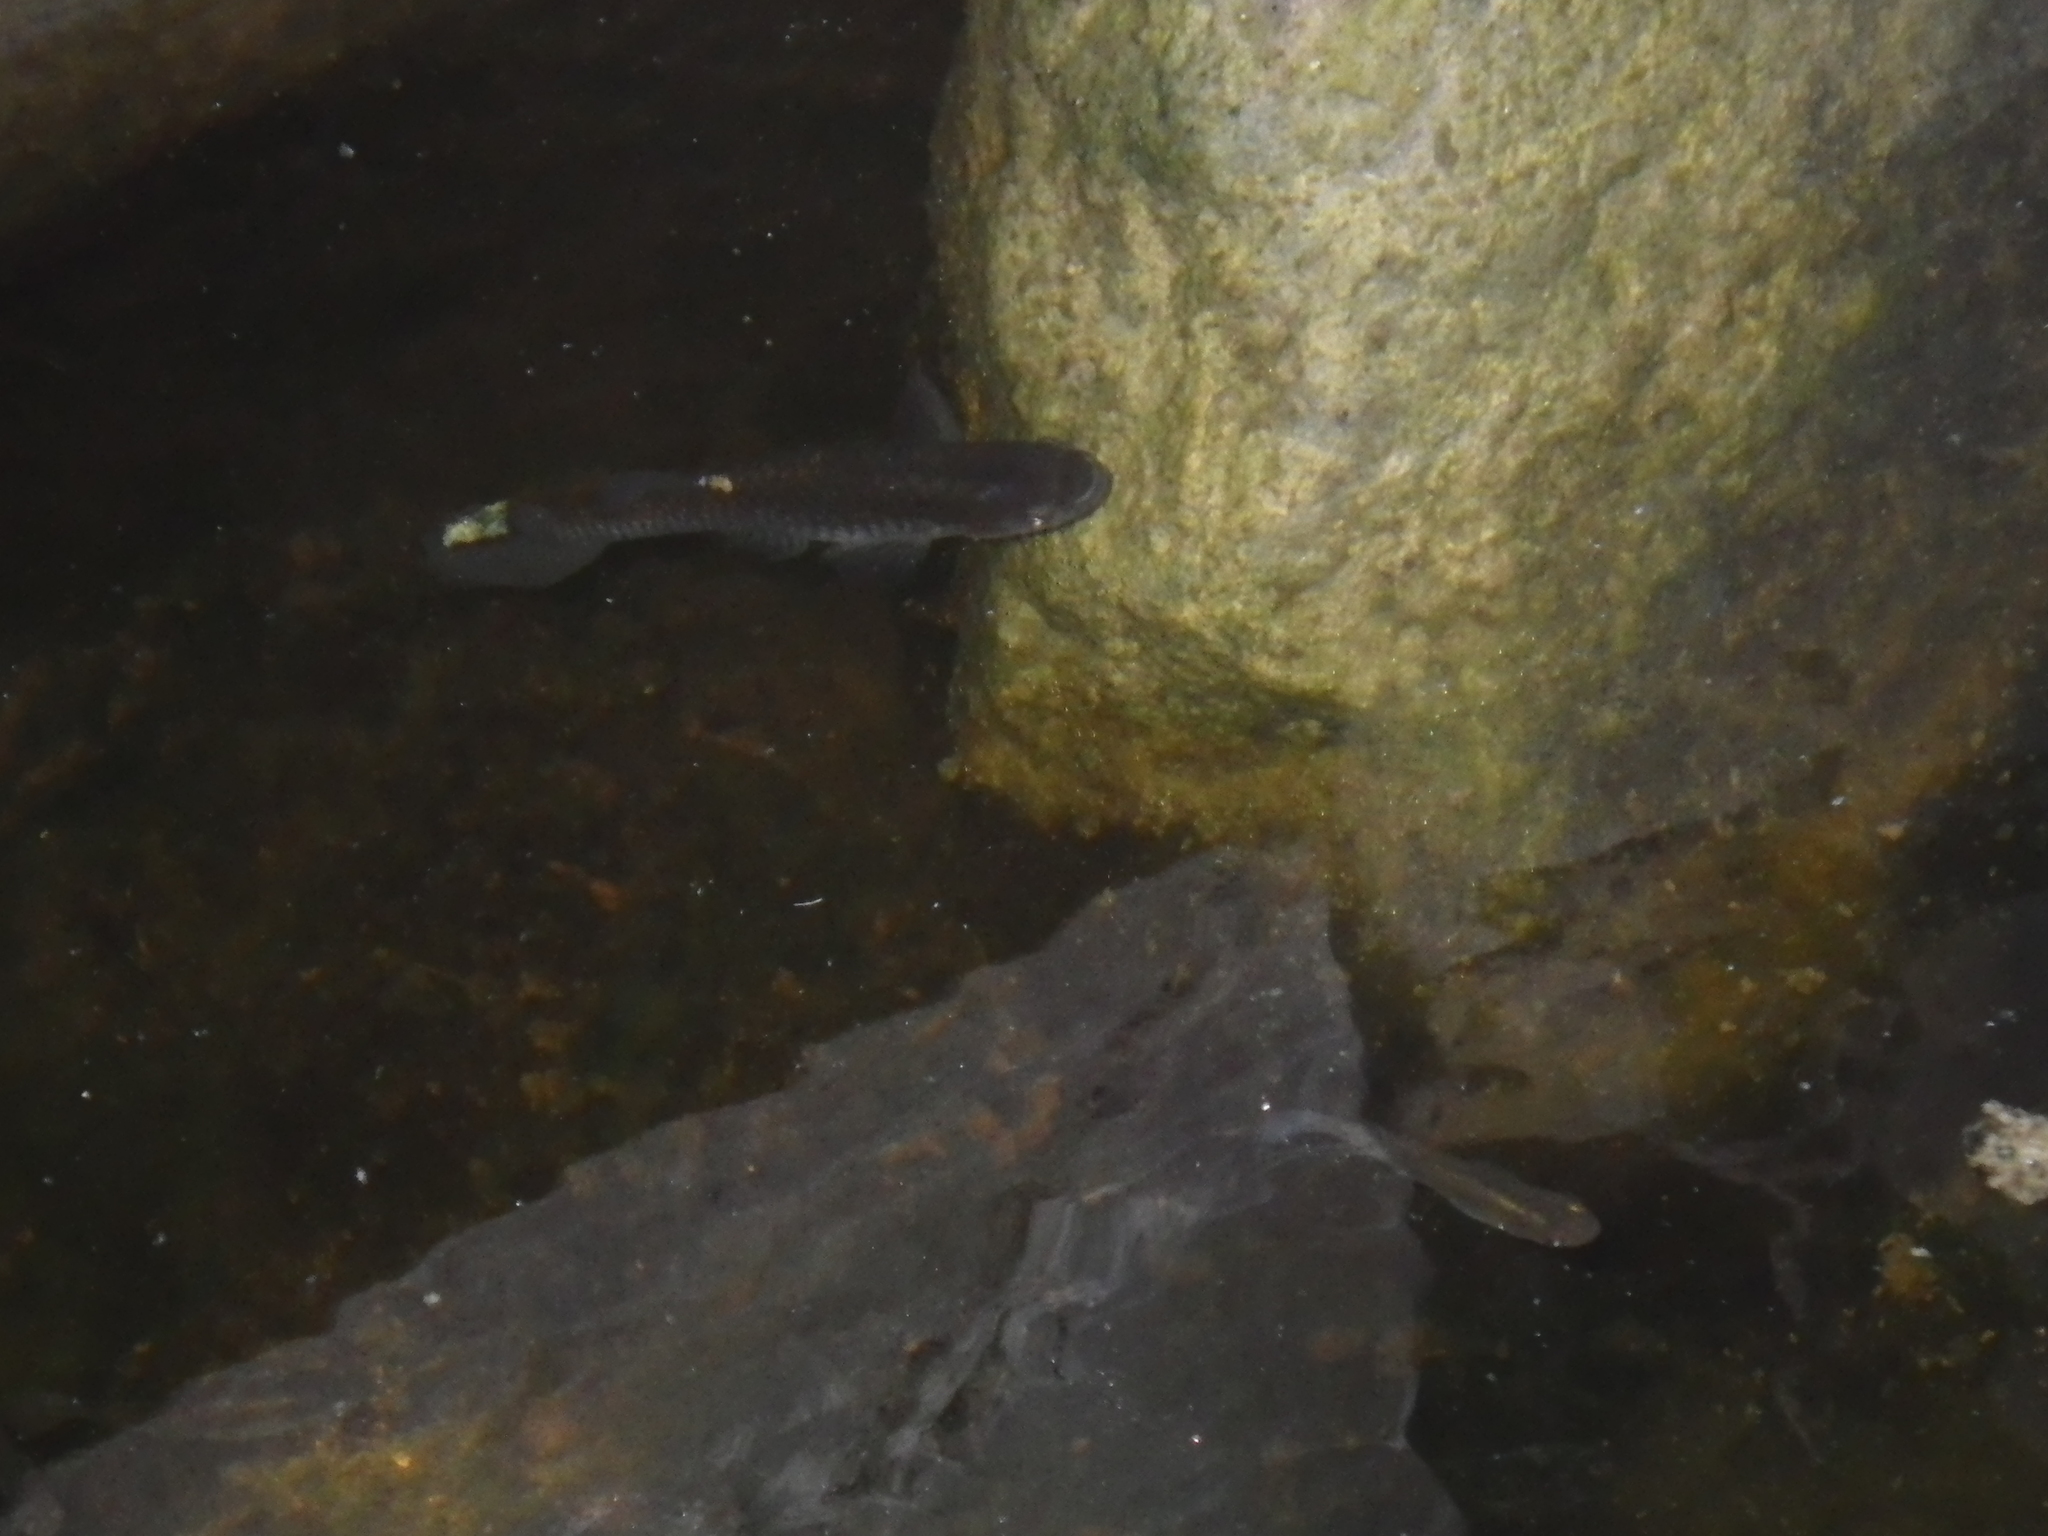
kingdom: Animalia
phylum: Chordata
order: Cyprinodontiformes
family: Poeciliidae
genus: Gambusia
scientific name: Gambusia affinis
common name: Mosquitofish
